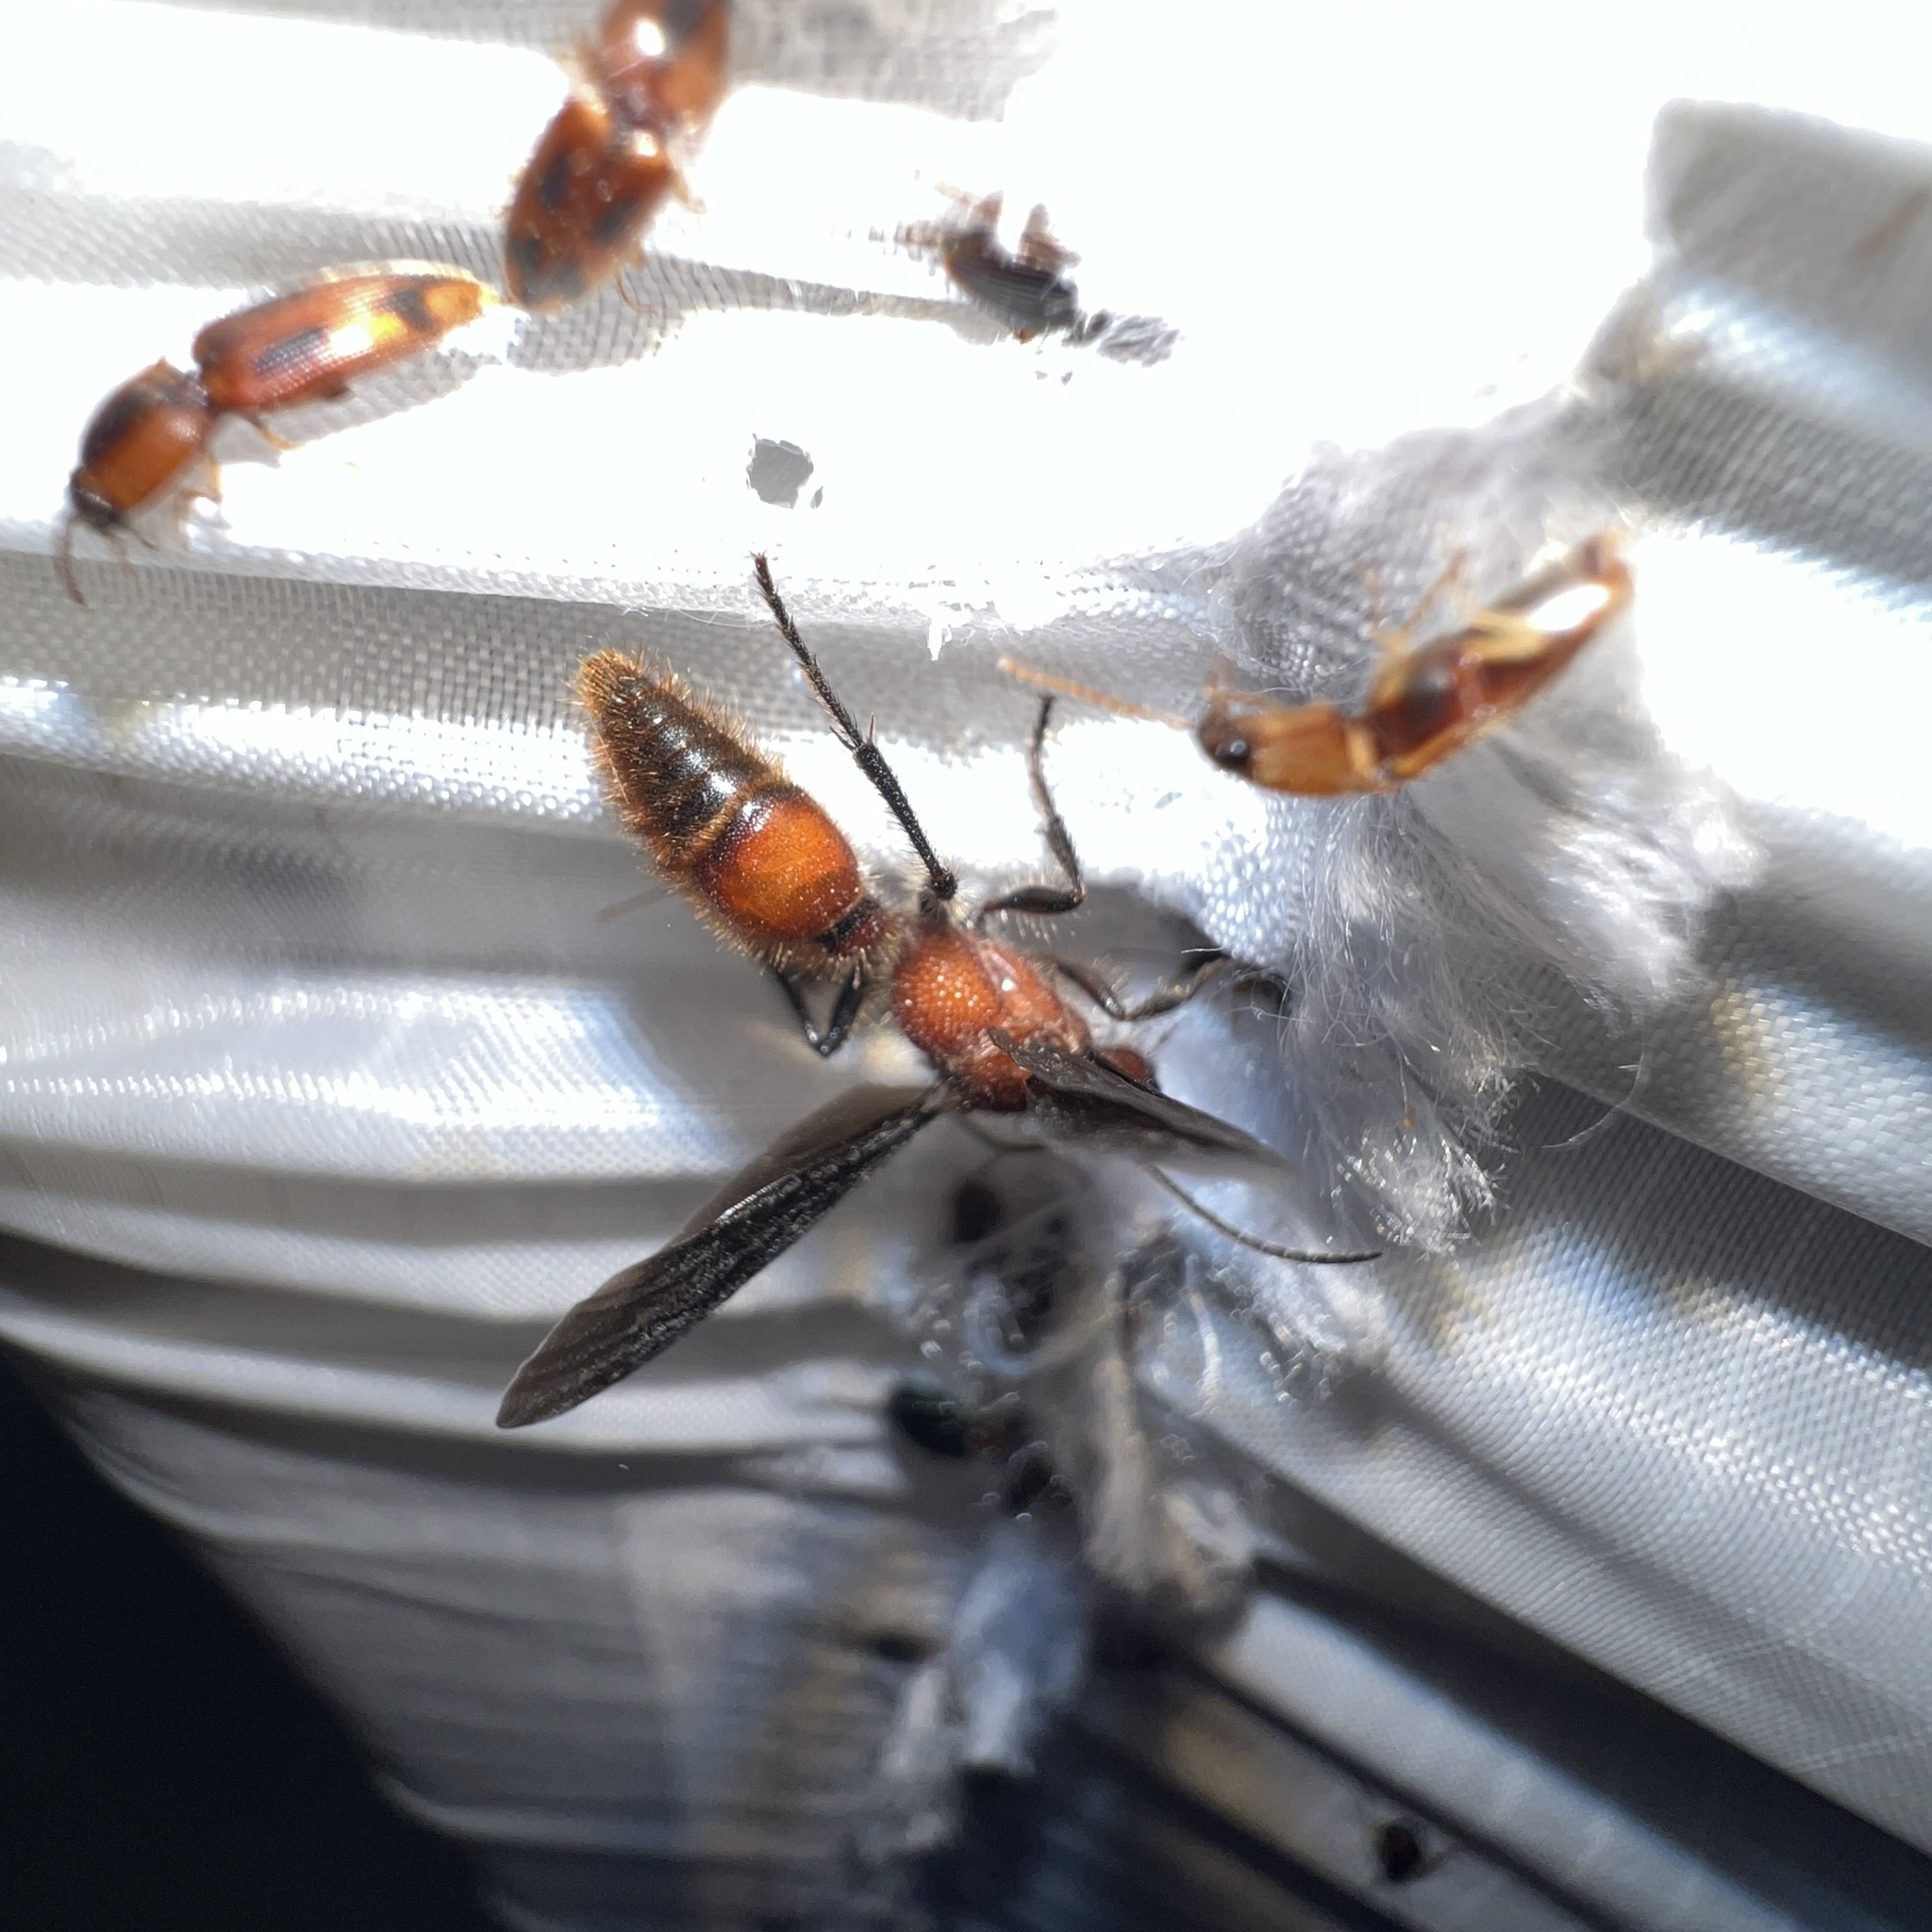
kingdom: Animalia
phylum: Arthropoda
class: Insecta
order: Hymenoptera
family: Mutillidae
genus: Sphaeropthalma
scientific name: Sphaeropthalma
